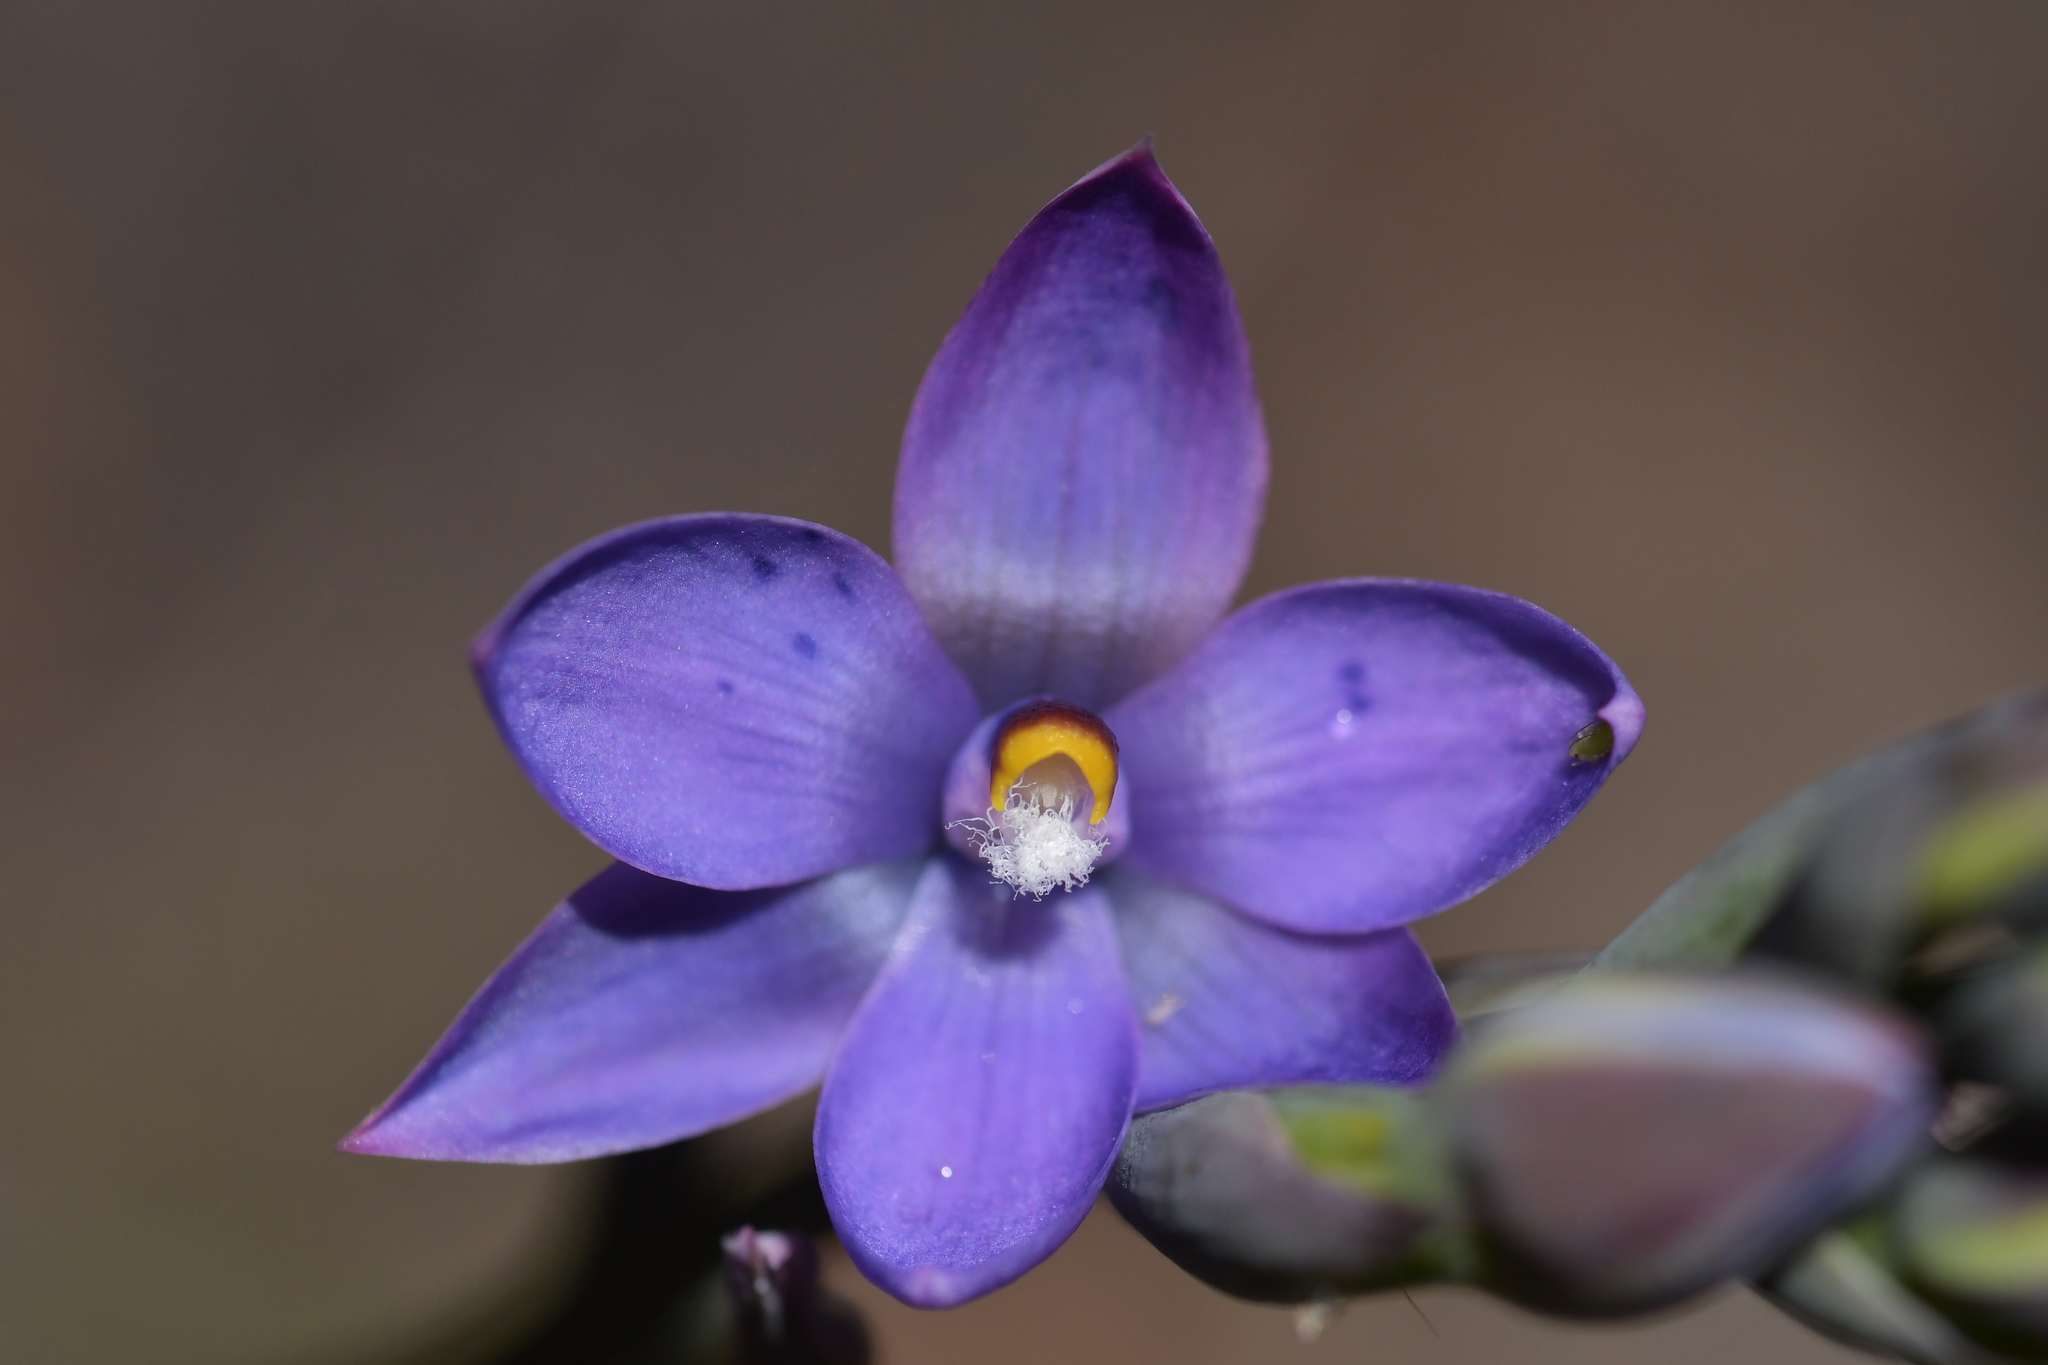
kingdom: Plantae
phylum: Tracheophyta
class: Liliopsida
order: Asparagales
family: Orchidaceae
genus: Thelymitra
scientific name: Thelymitra nervosa
